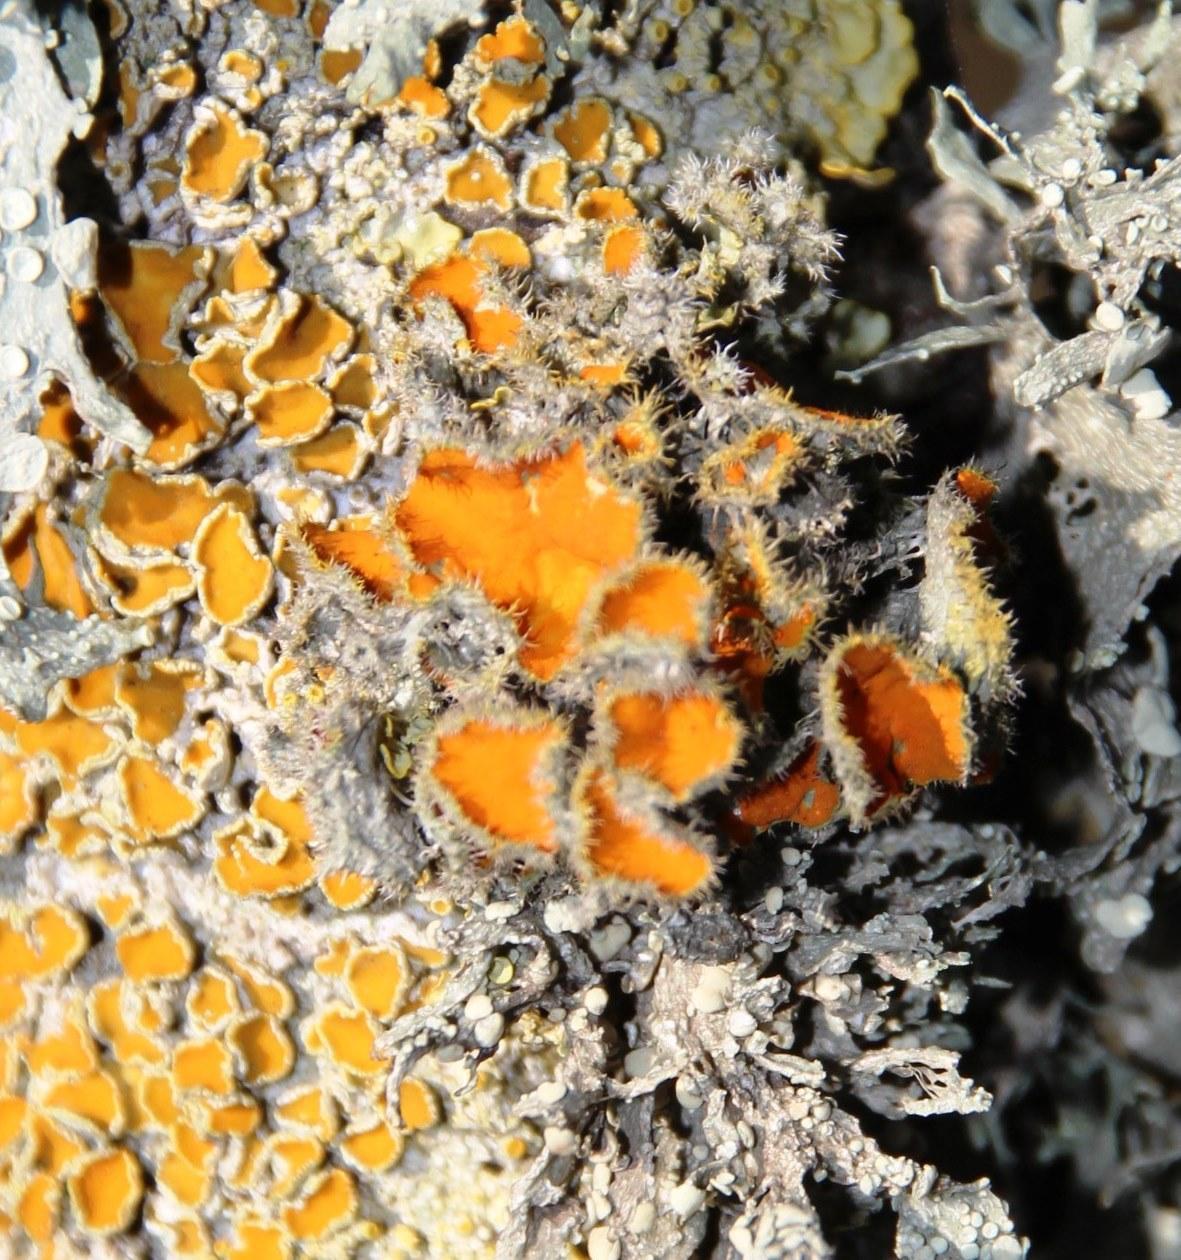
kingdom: Fungi
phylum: Ascomycota
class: Lecanoromycetes
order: Teloschistales
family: Teloschistaceae
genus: Niorma
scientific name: Niorma chrysophthalma
